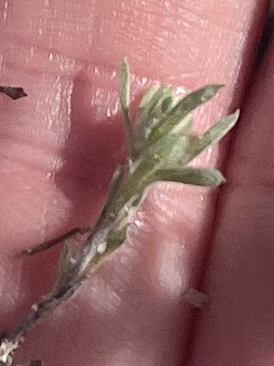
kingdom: Plantae
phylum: Tracheophyta
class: Magnoliopsida
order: Asterales
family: Asteraceae
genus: Logfia
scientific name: Logfia californica
